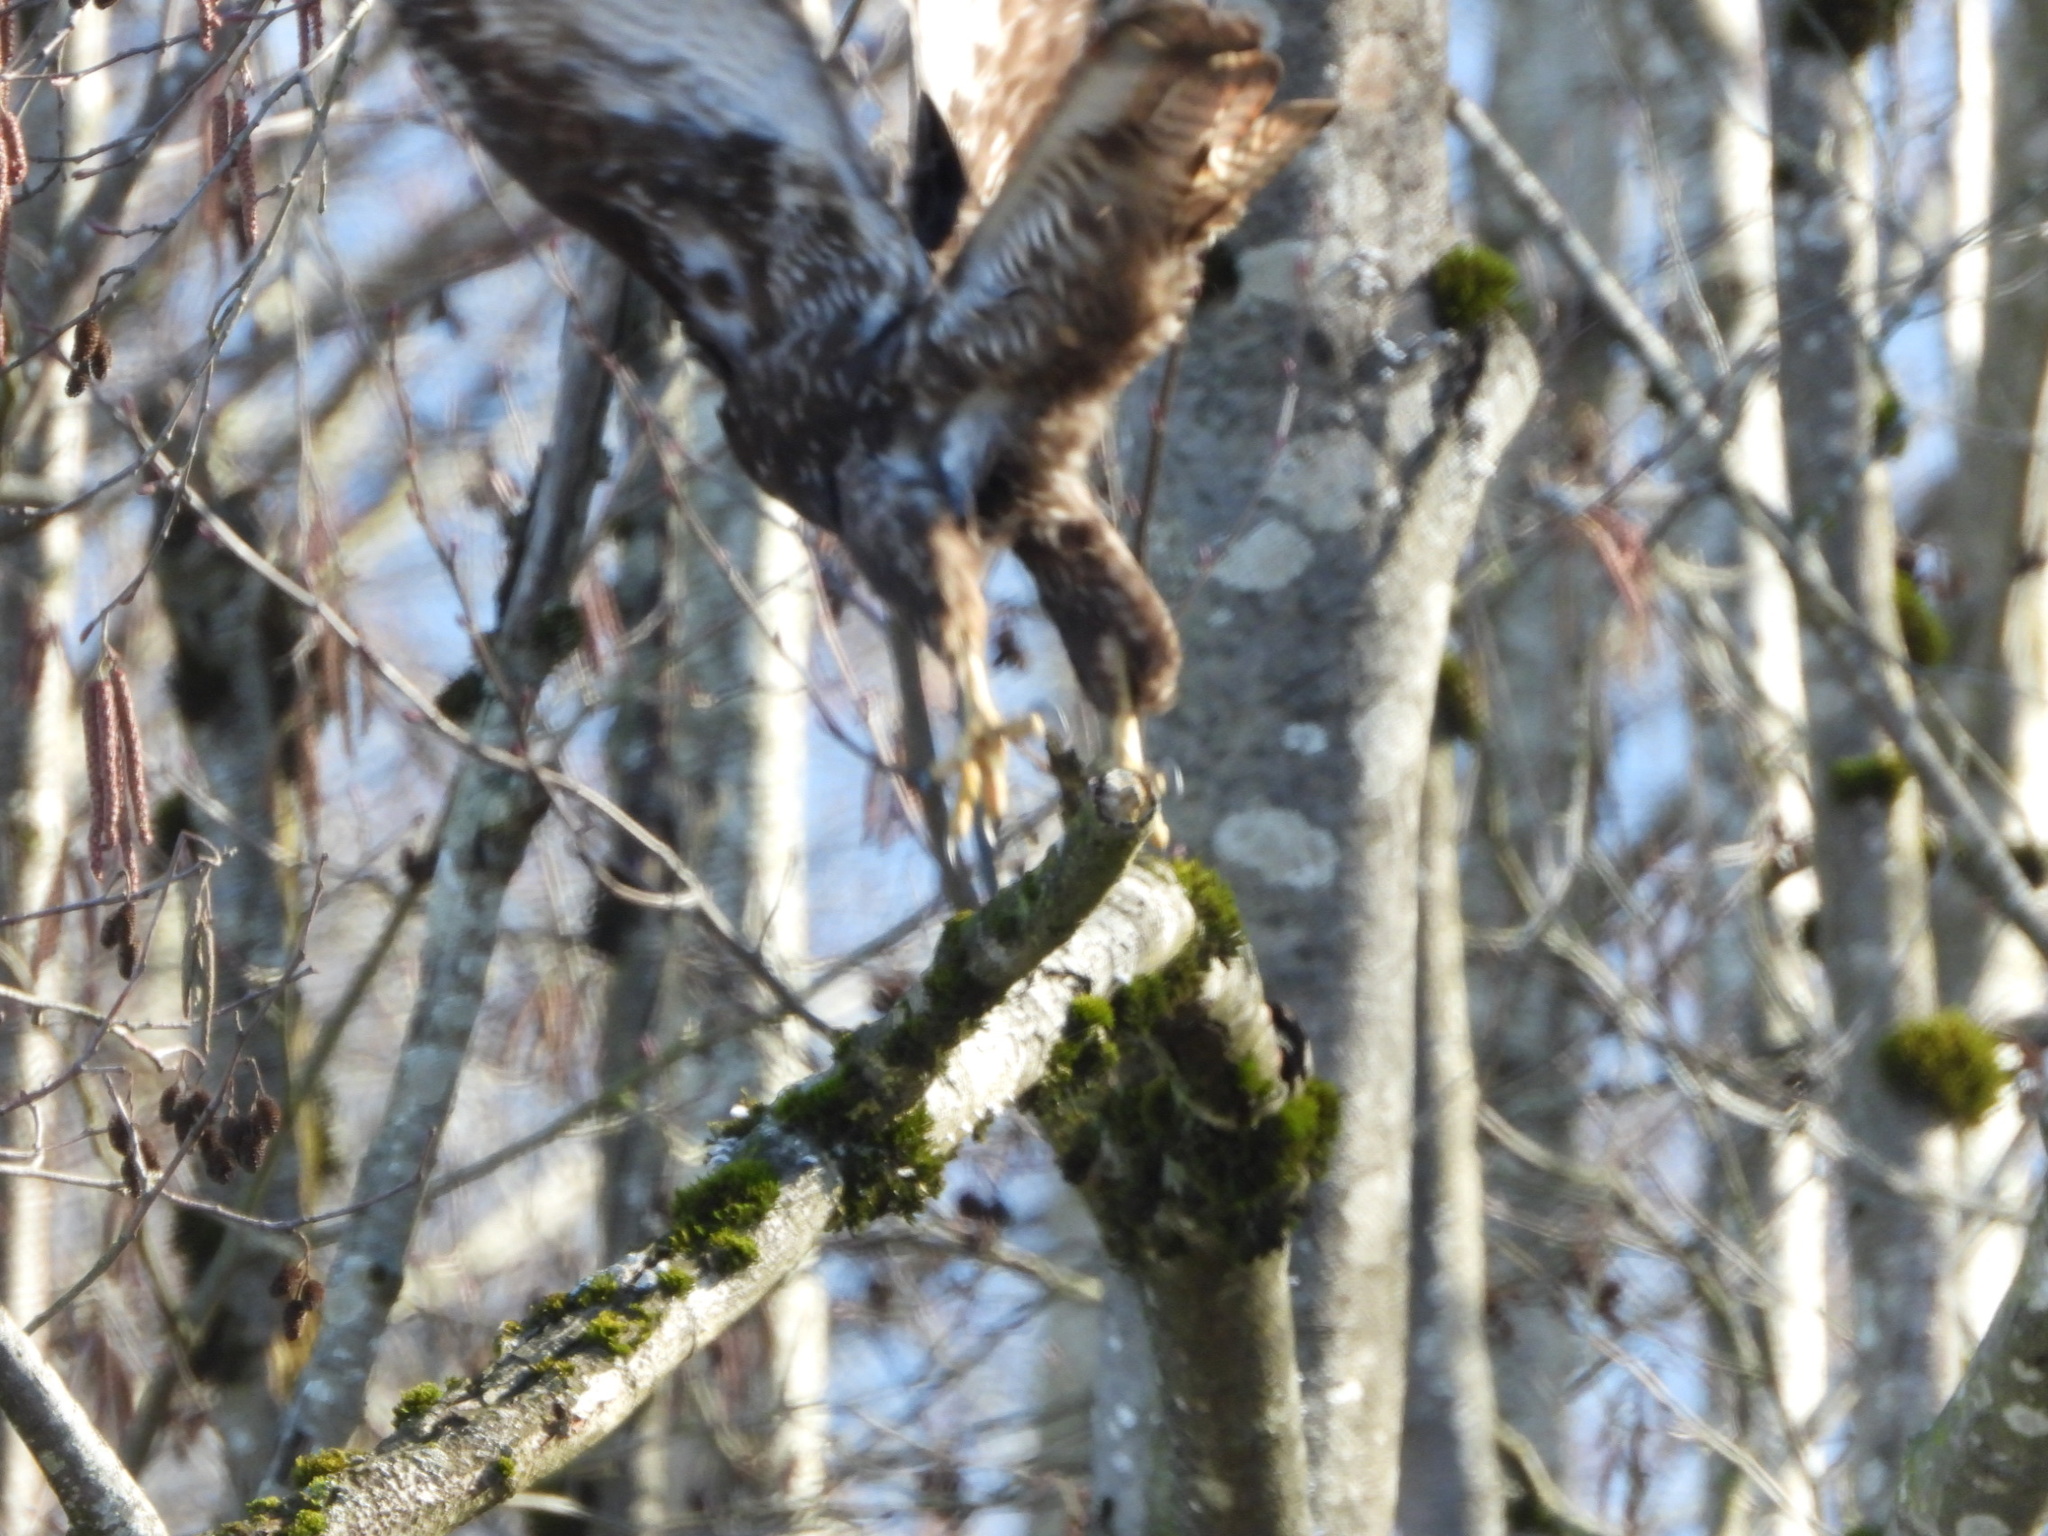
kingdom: Animalia
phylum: Chordata
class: Aves
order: Accipitriformes
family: Accipitridae
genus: Buteo
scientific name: Buteo jamaicensis
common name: Red-tailed hawk
